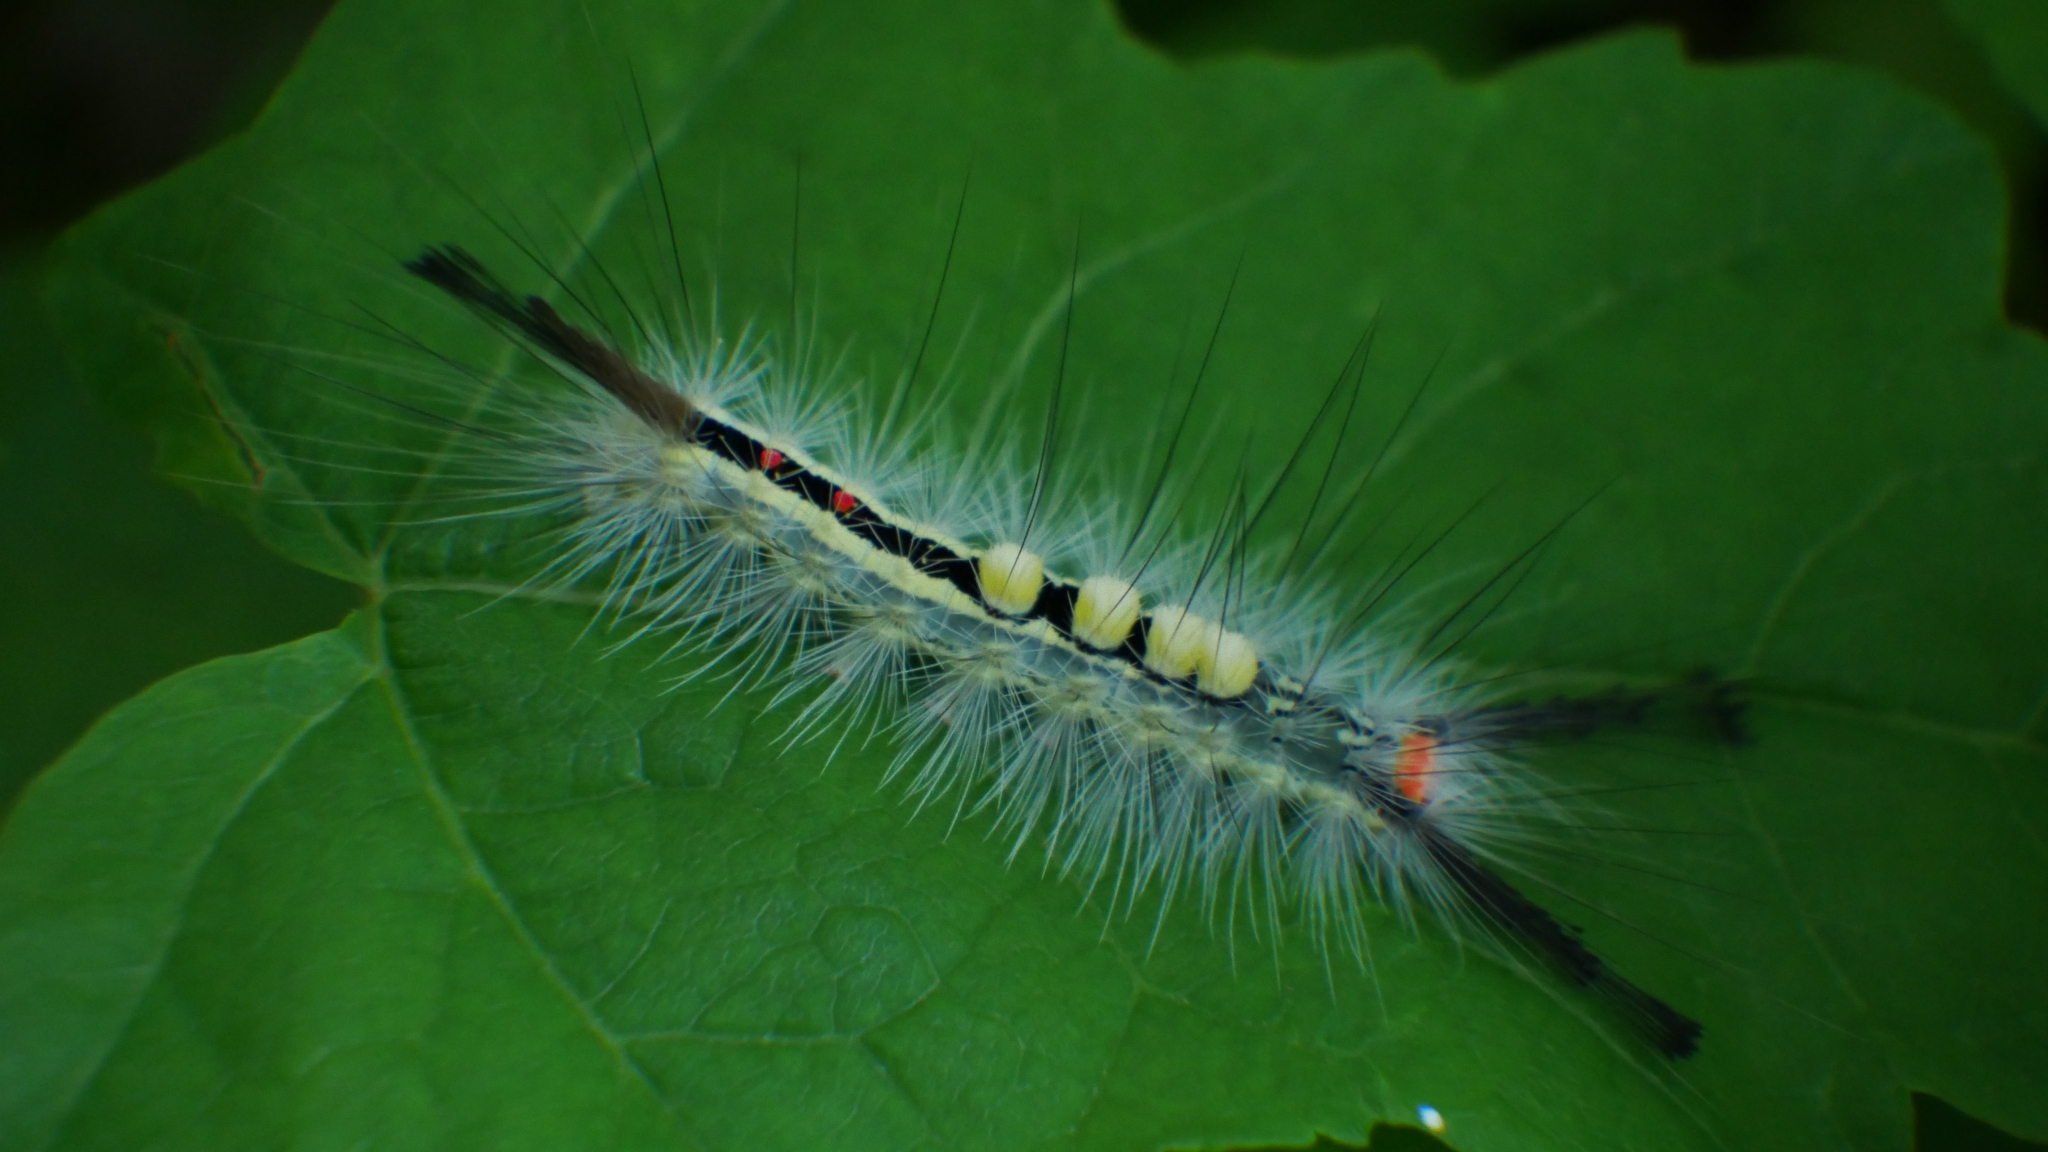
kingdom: Animalia
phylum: Arthropoda
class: Insecta
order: Lepidoptera
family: Erebidae
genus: Orgyia
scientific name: Orgyia leucostigma
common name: White-marked tussock moth
